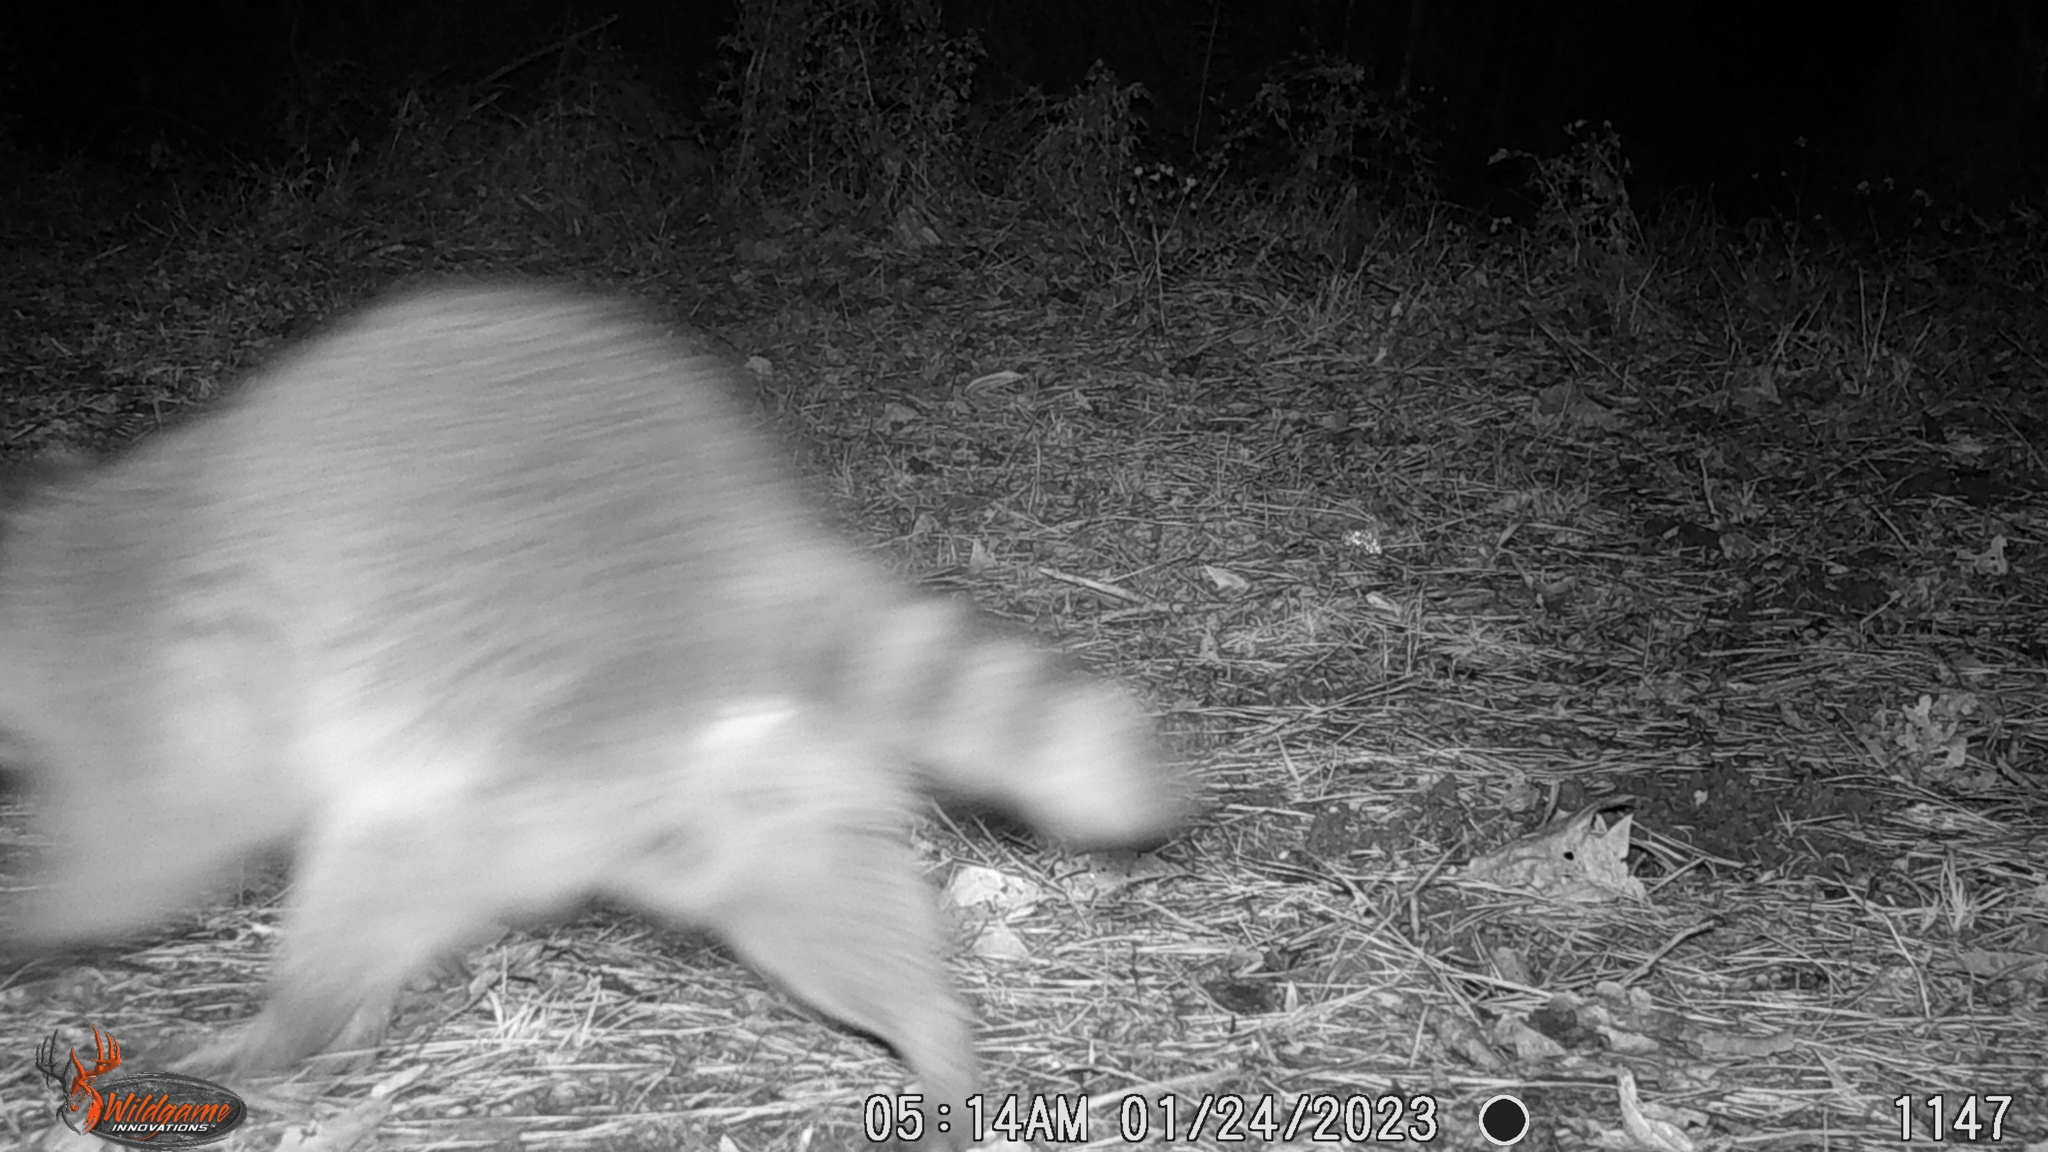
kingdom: Animalia
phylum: Chordata
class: Mammalia
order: Carnivora
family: Procyonidae
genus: Procyon
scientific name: Procyon lotor
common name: Raccoon
